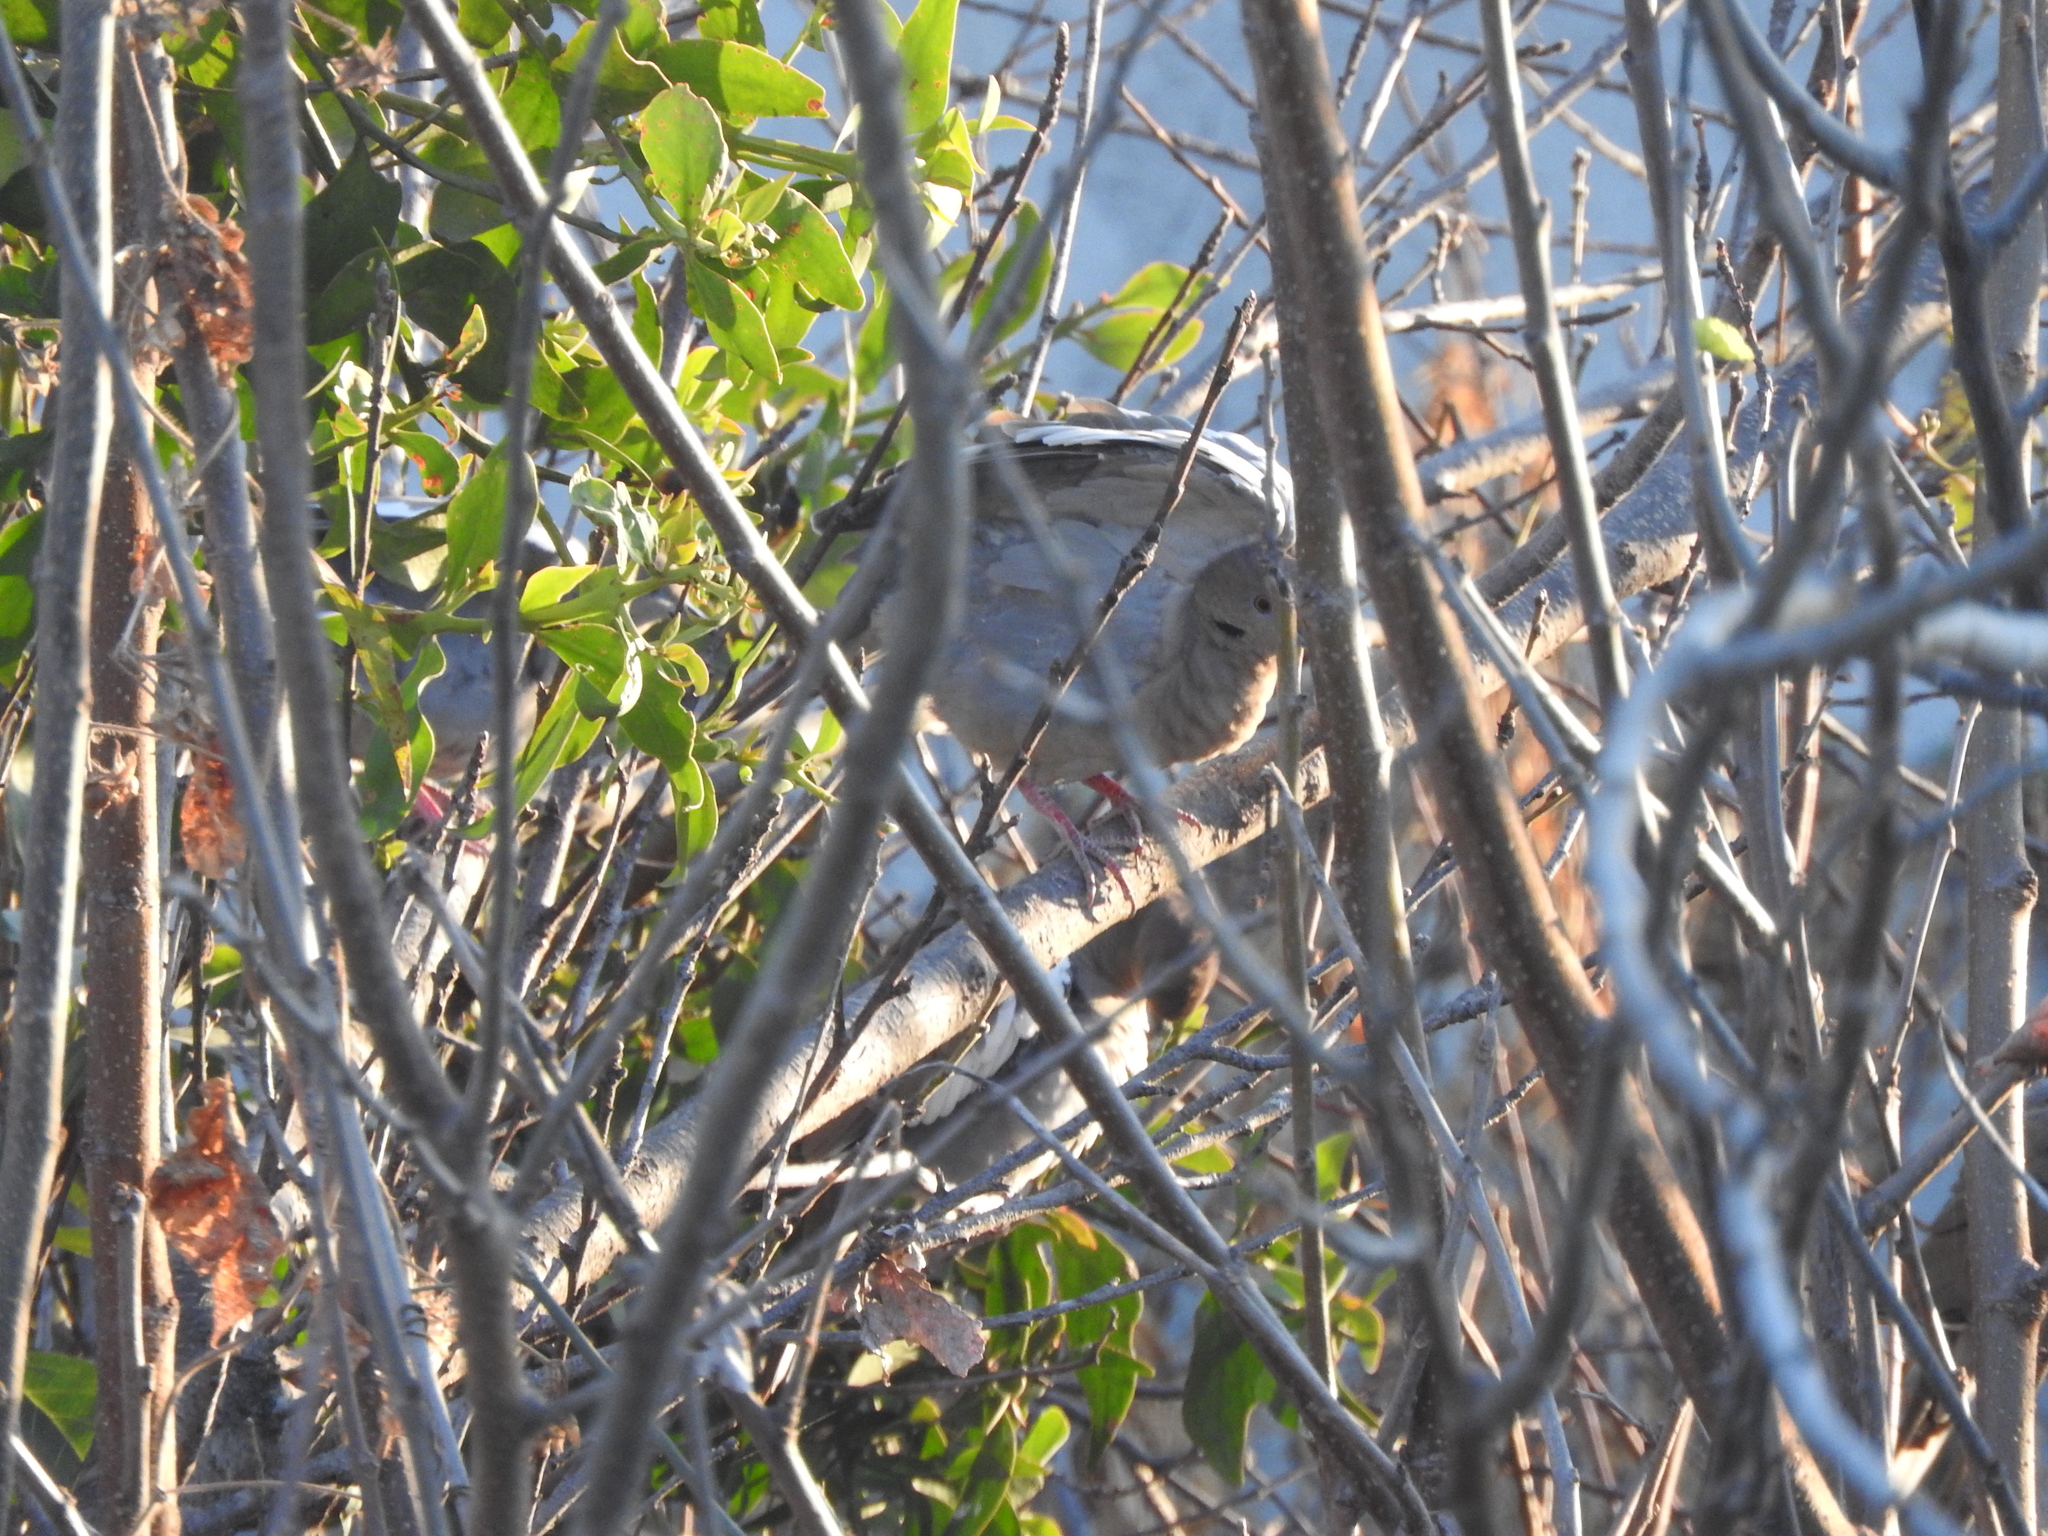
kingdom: Animalia
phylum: Chordata
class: Aves
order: Columbiformes
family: Columbidae
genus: Zenaida
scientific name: Zenaida asiatica
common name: White-winged dove
